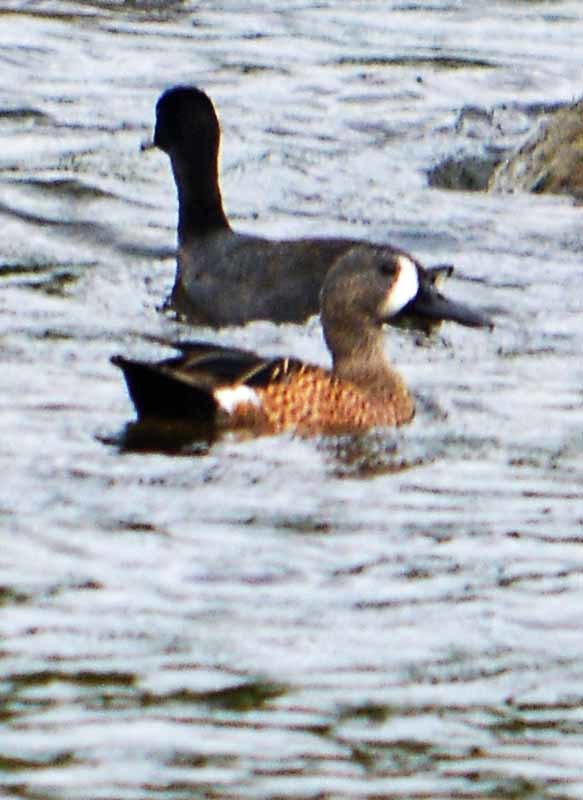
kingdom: Animalia
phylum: Chordata
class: Aves
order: Anseriformes
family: Anatidae
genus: Spatula
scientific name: Spatula discors
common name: Blue-winged teal
